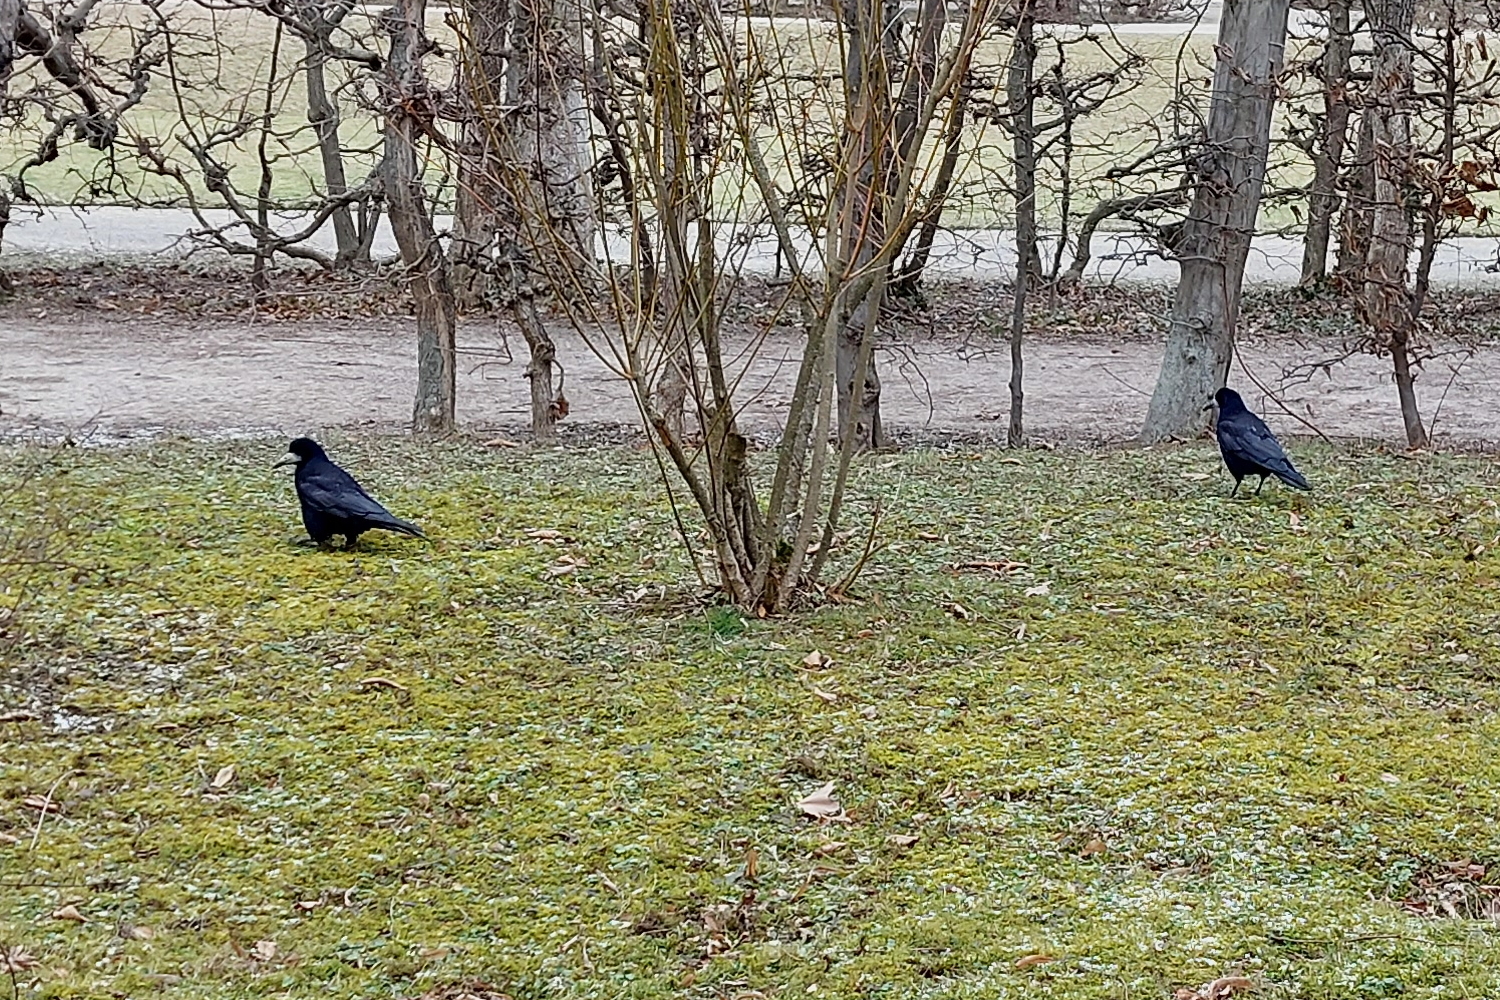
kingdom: Animalia
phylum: Chordata
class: Aves
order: Passeriformes
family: Corvidae
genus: Corvus
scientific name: Corvus frugilegus
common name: Rook
